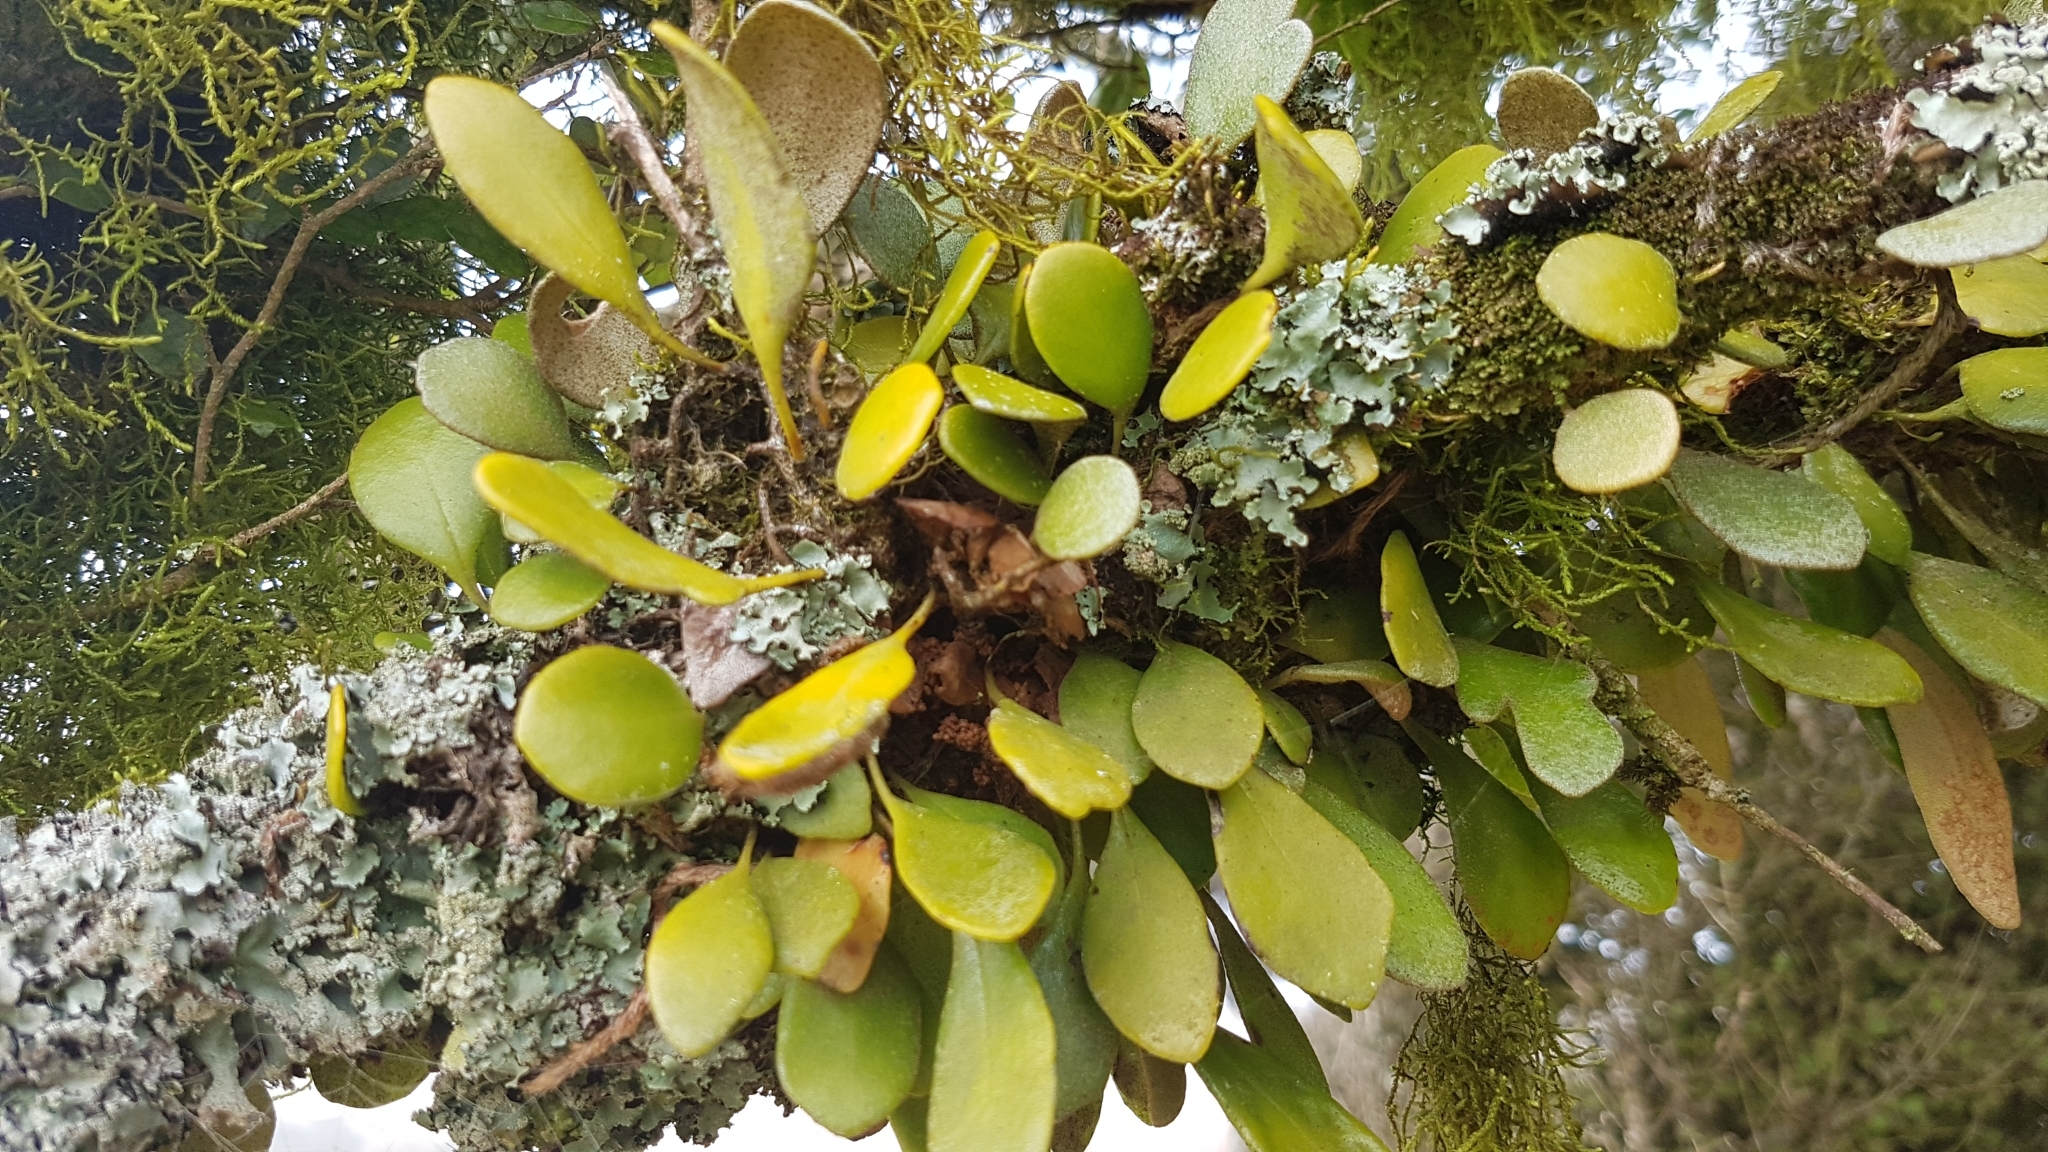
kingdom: Plantae
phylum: Tracheophyta
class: Polypodiopsida
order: Polypodiales
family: Polypodiaceae
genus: Pyrrosia
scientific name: Pyrrosia eleagnifolia
